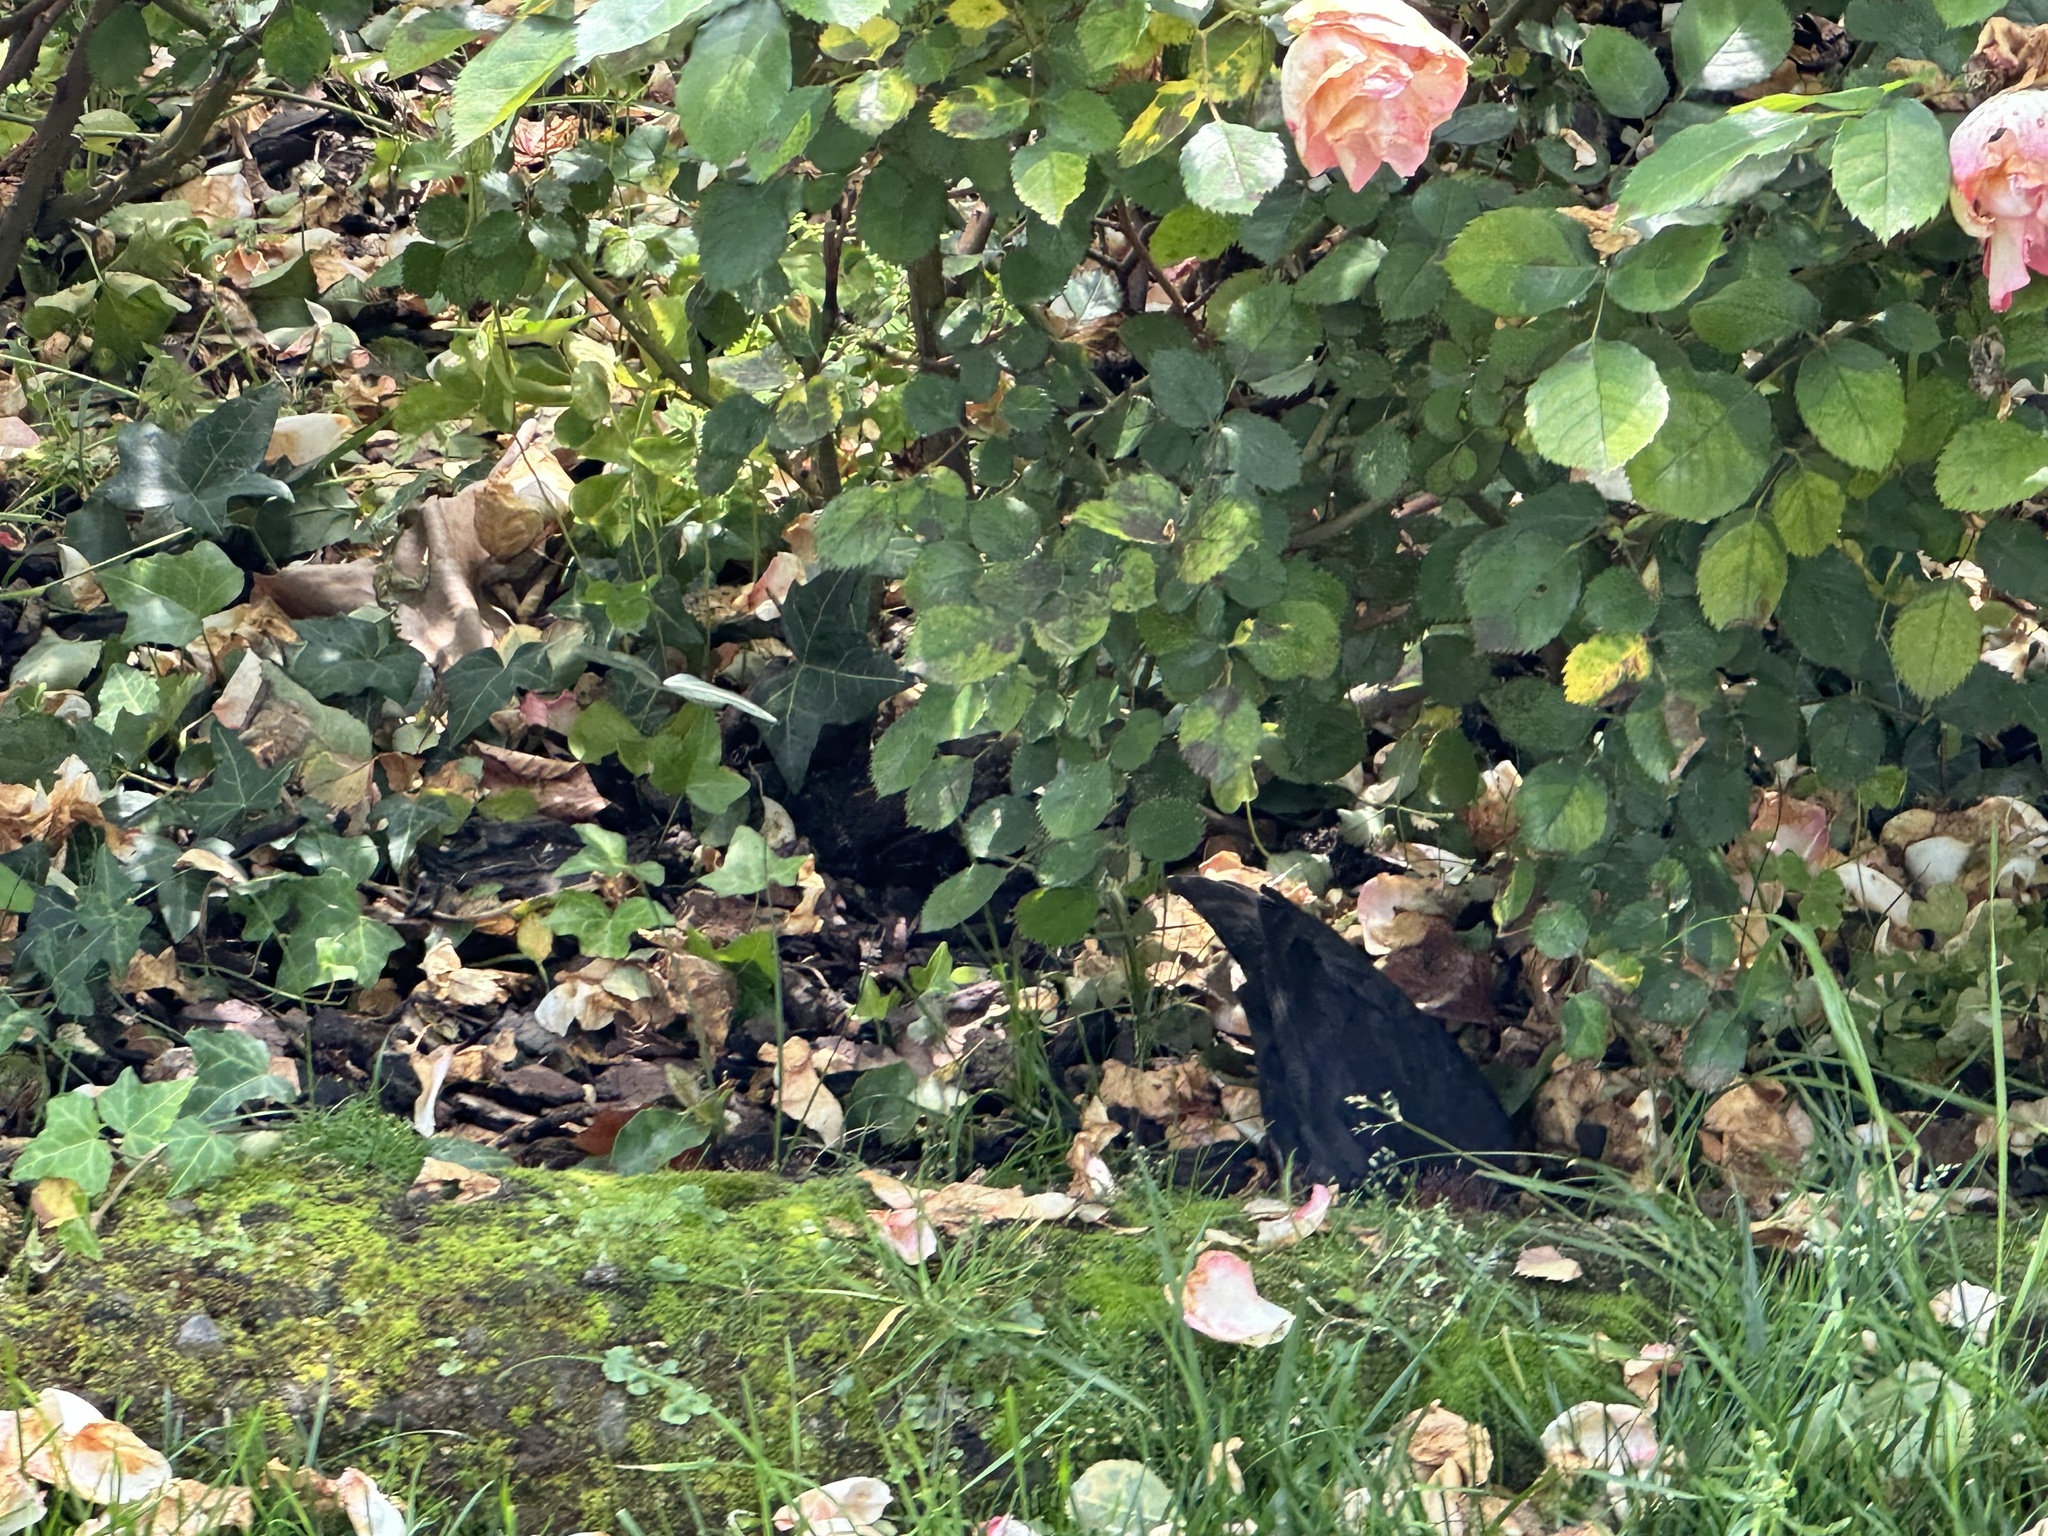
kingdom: Animalia
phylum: Chordata
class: Aves
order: Passeriformes
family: Turdidae
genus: Turdus
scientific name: Turdus merula
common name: Common blackbird
